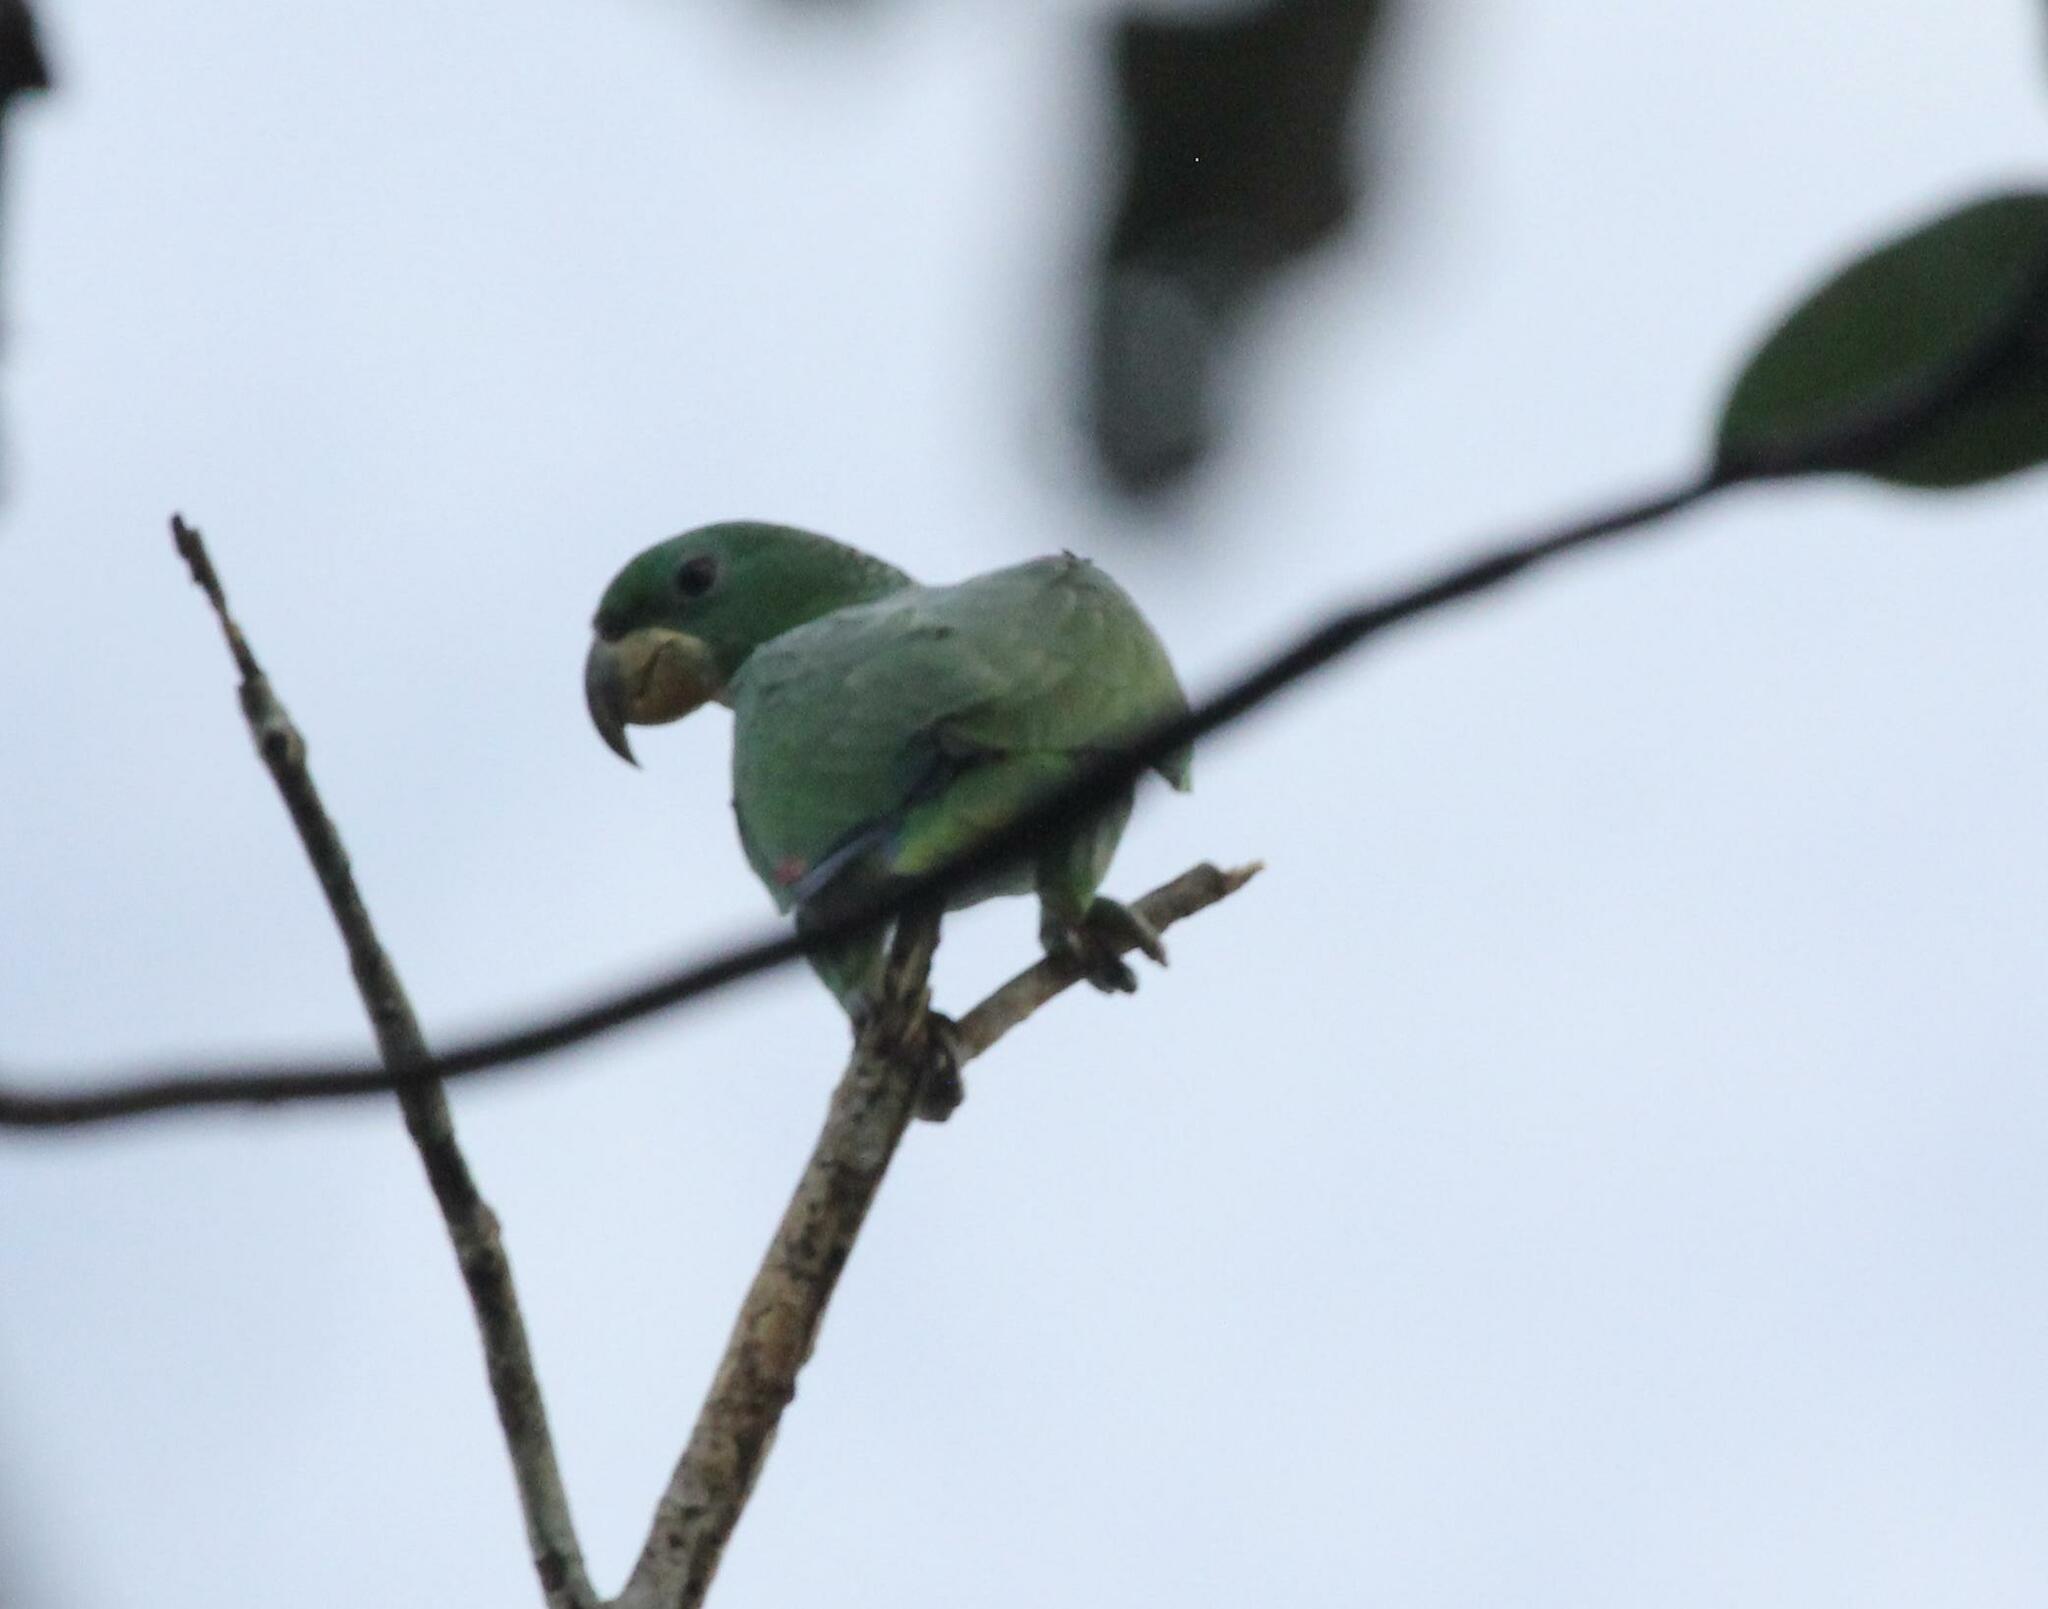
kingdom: Animalia
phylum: Chordata
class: Aves
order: Psittaciformes
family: Psittacidae
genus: Amazona
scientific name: Amazona kawalli
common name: White-cheeked amazon
